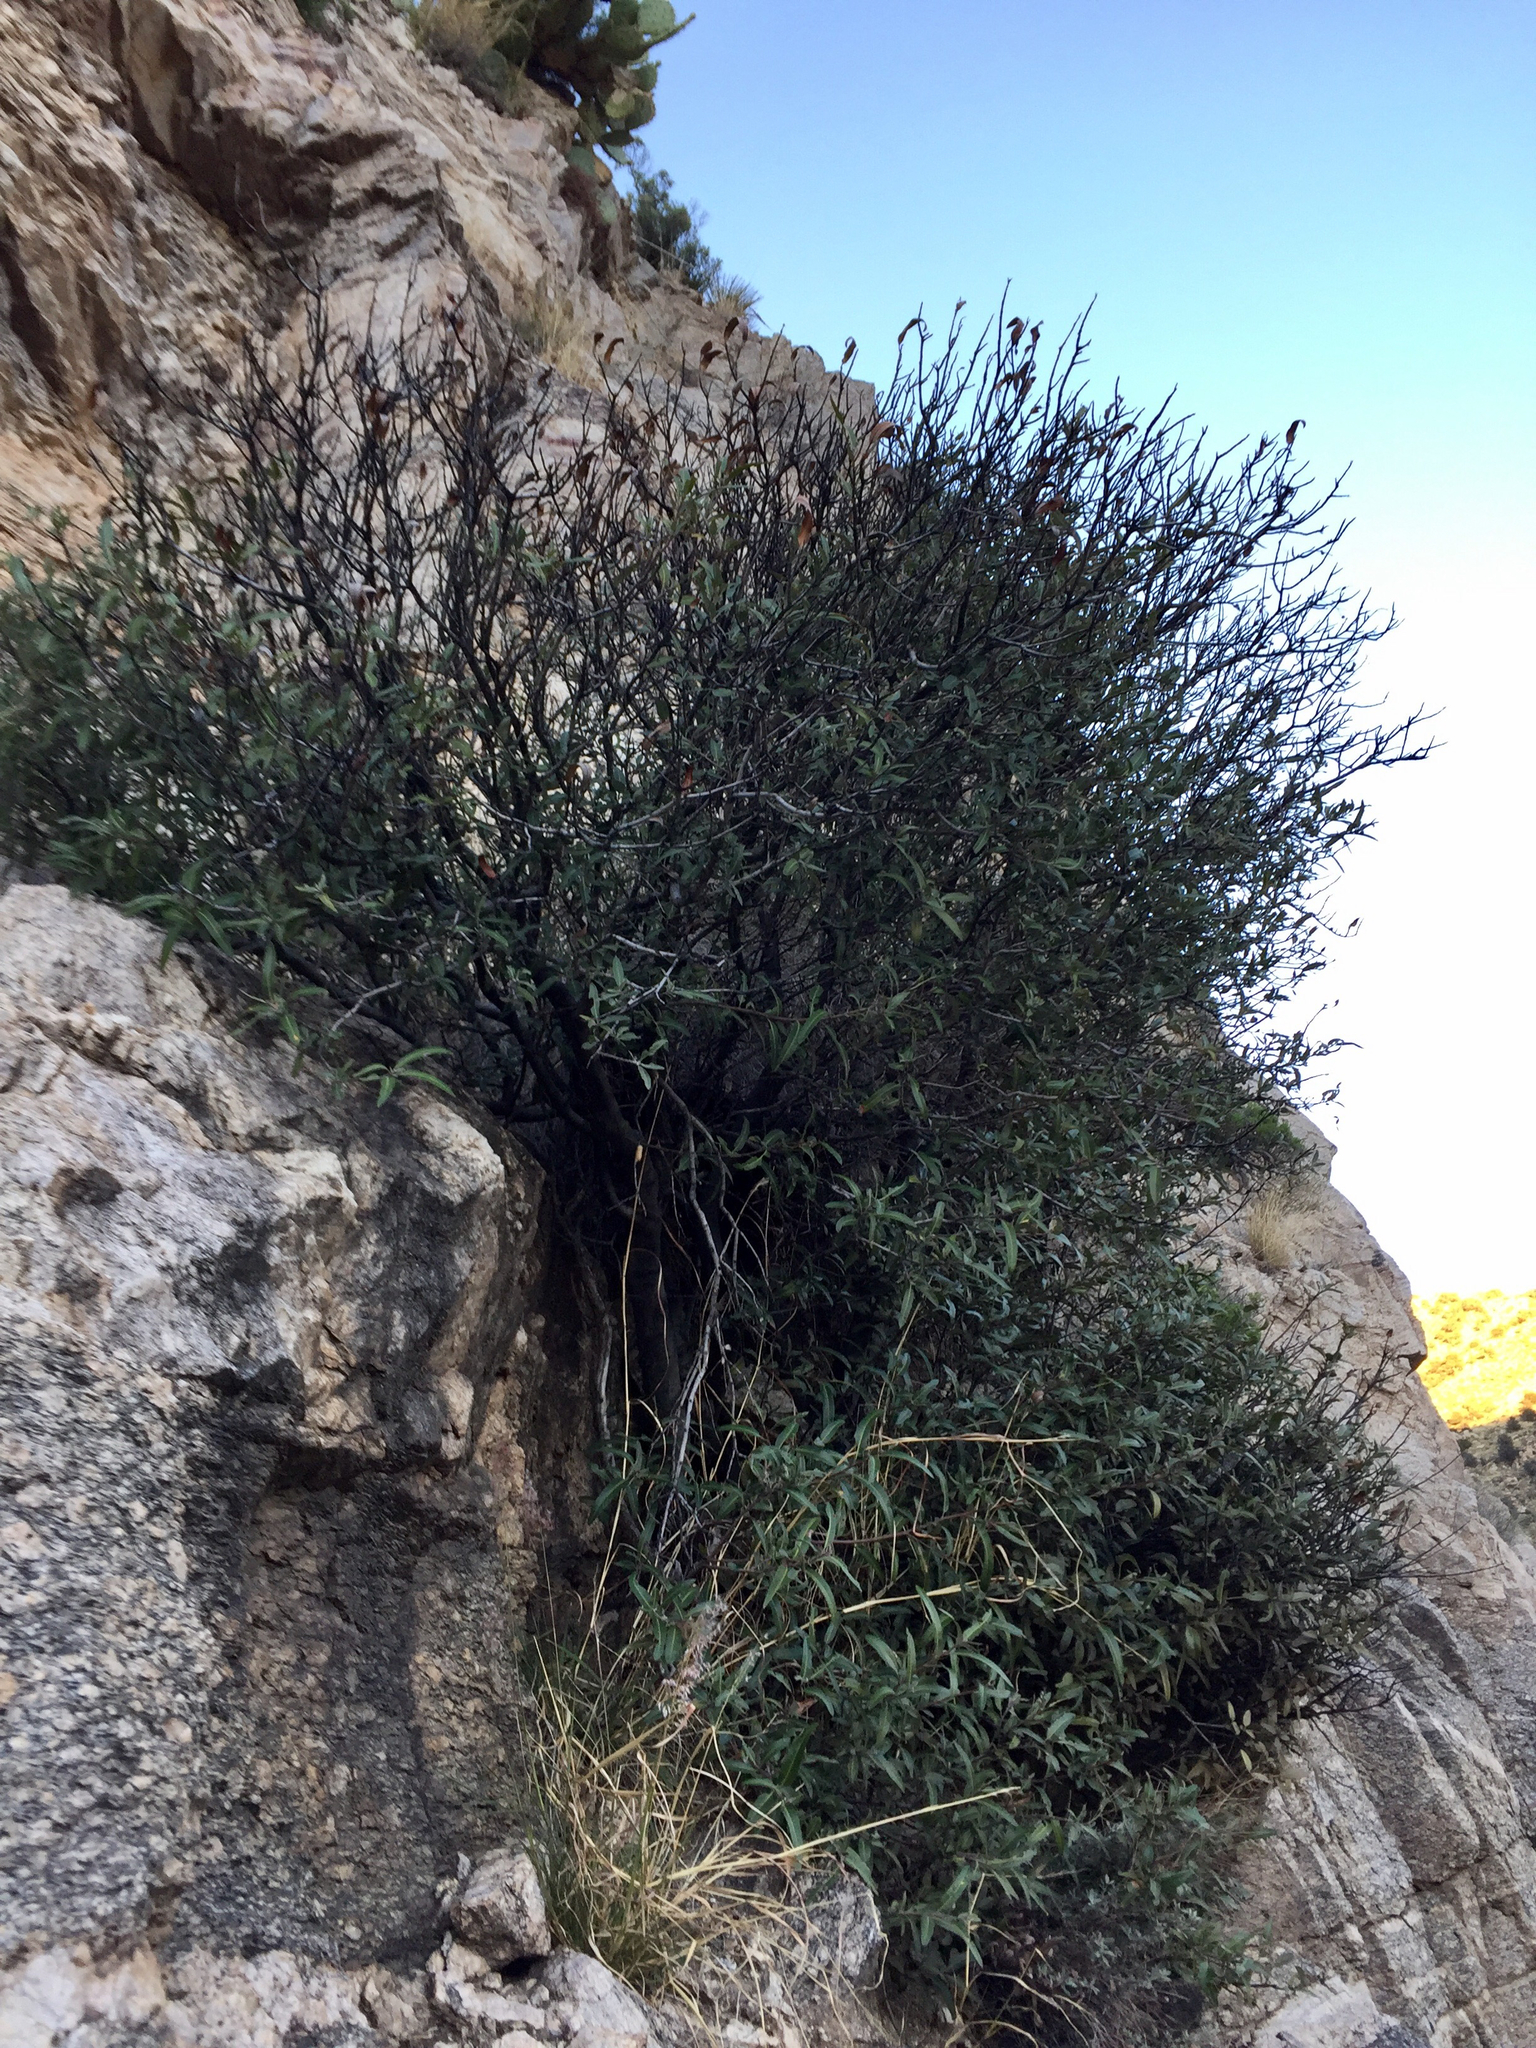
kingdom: Plantae
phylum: Tracheophyta
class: Magnoliopsida
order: Rosales
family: Rosaceae
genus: Vauquelinia
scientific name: Vauquelinia californica
